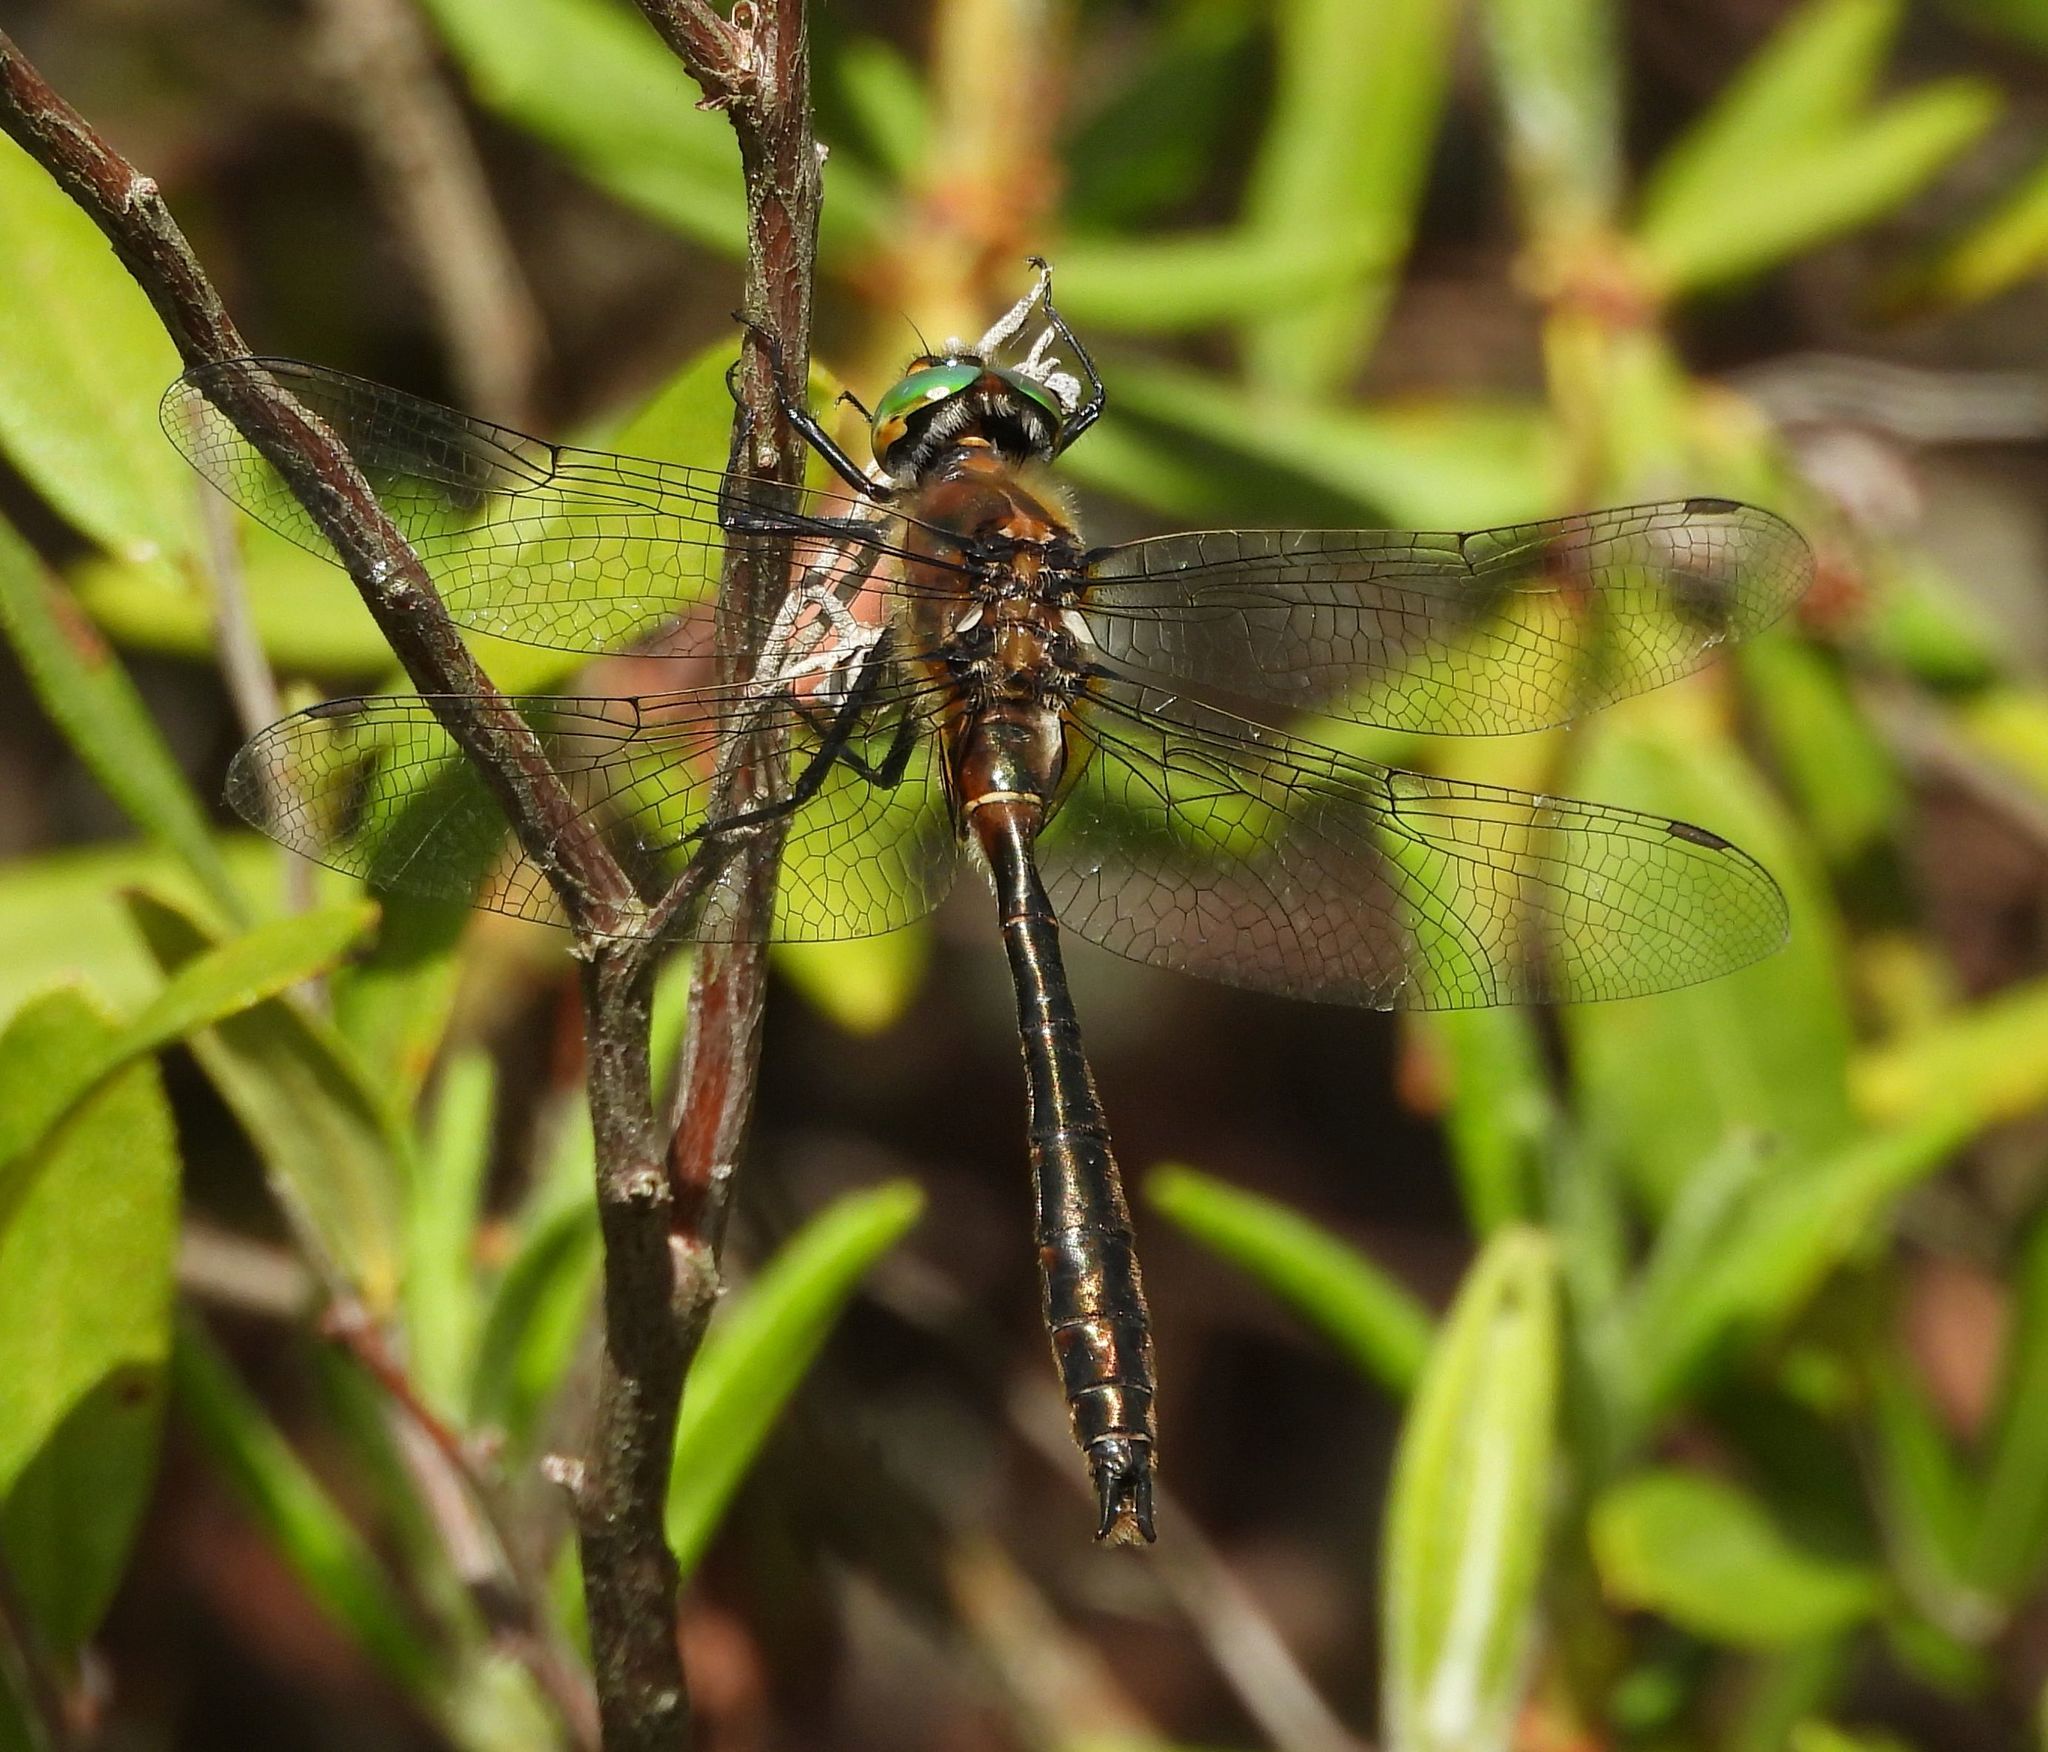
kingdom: Animalia
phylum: Arthropoda
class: Insecta
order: Odonata
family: Corduliidae
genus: Cordulia
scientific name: Cordulia shurtleffii
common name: American emerald
